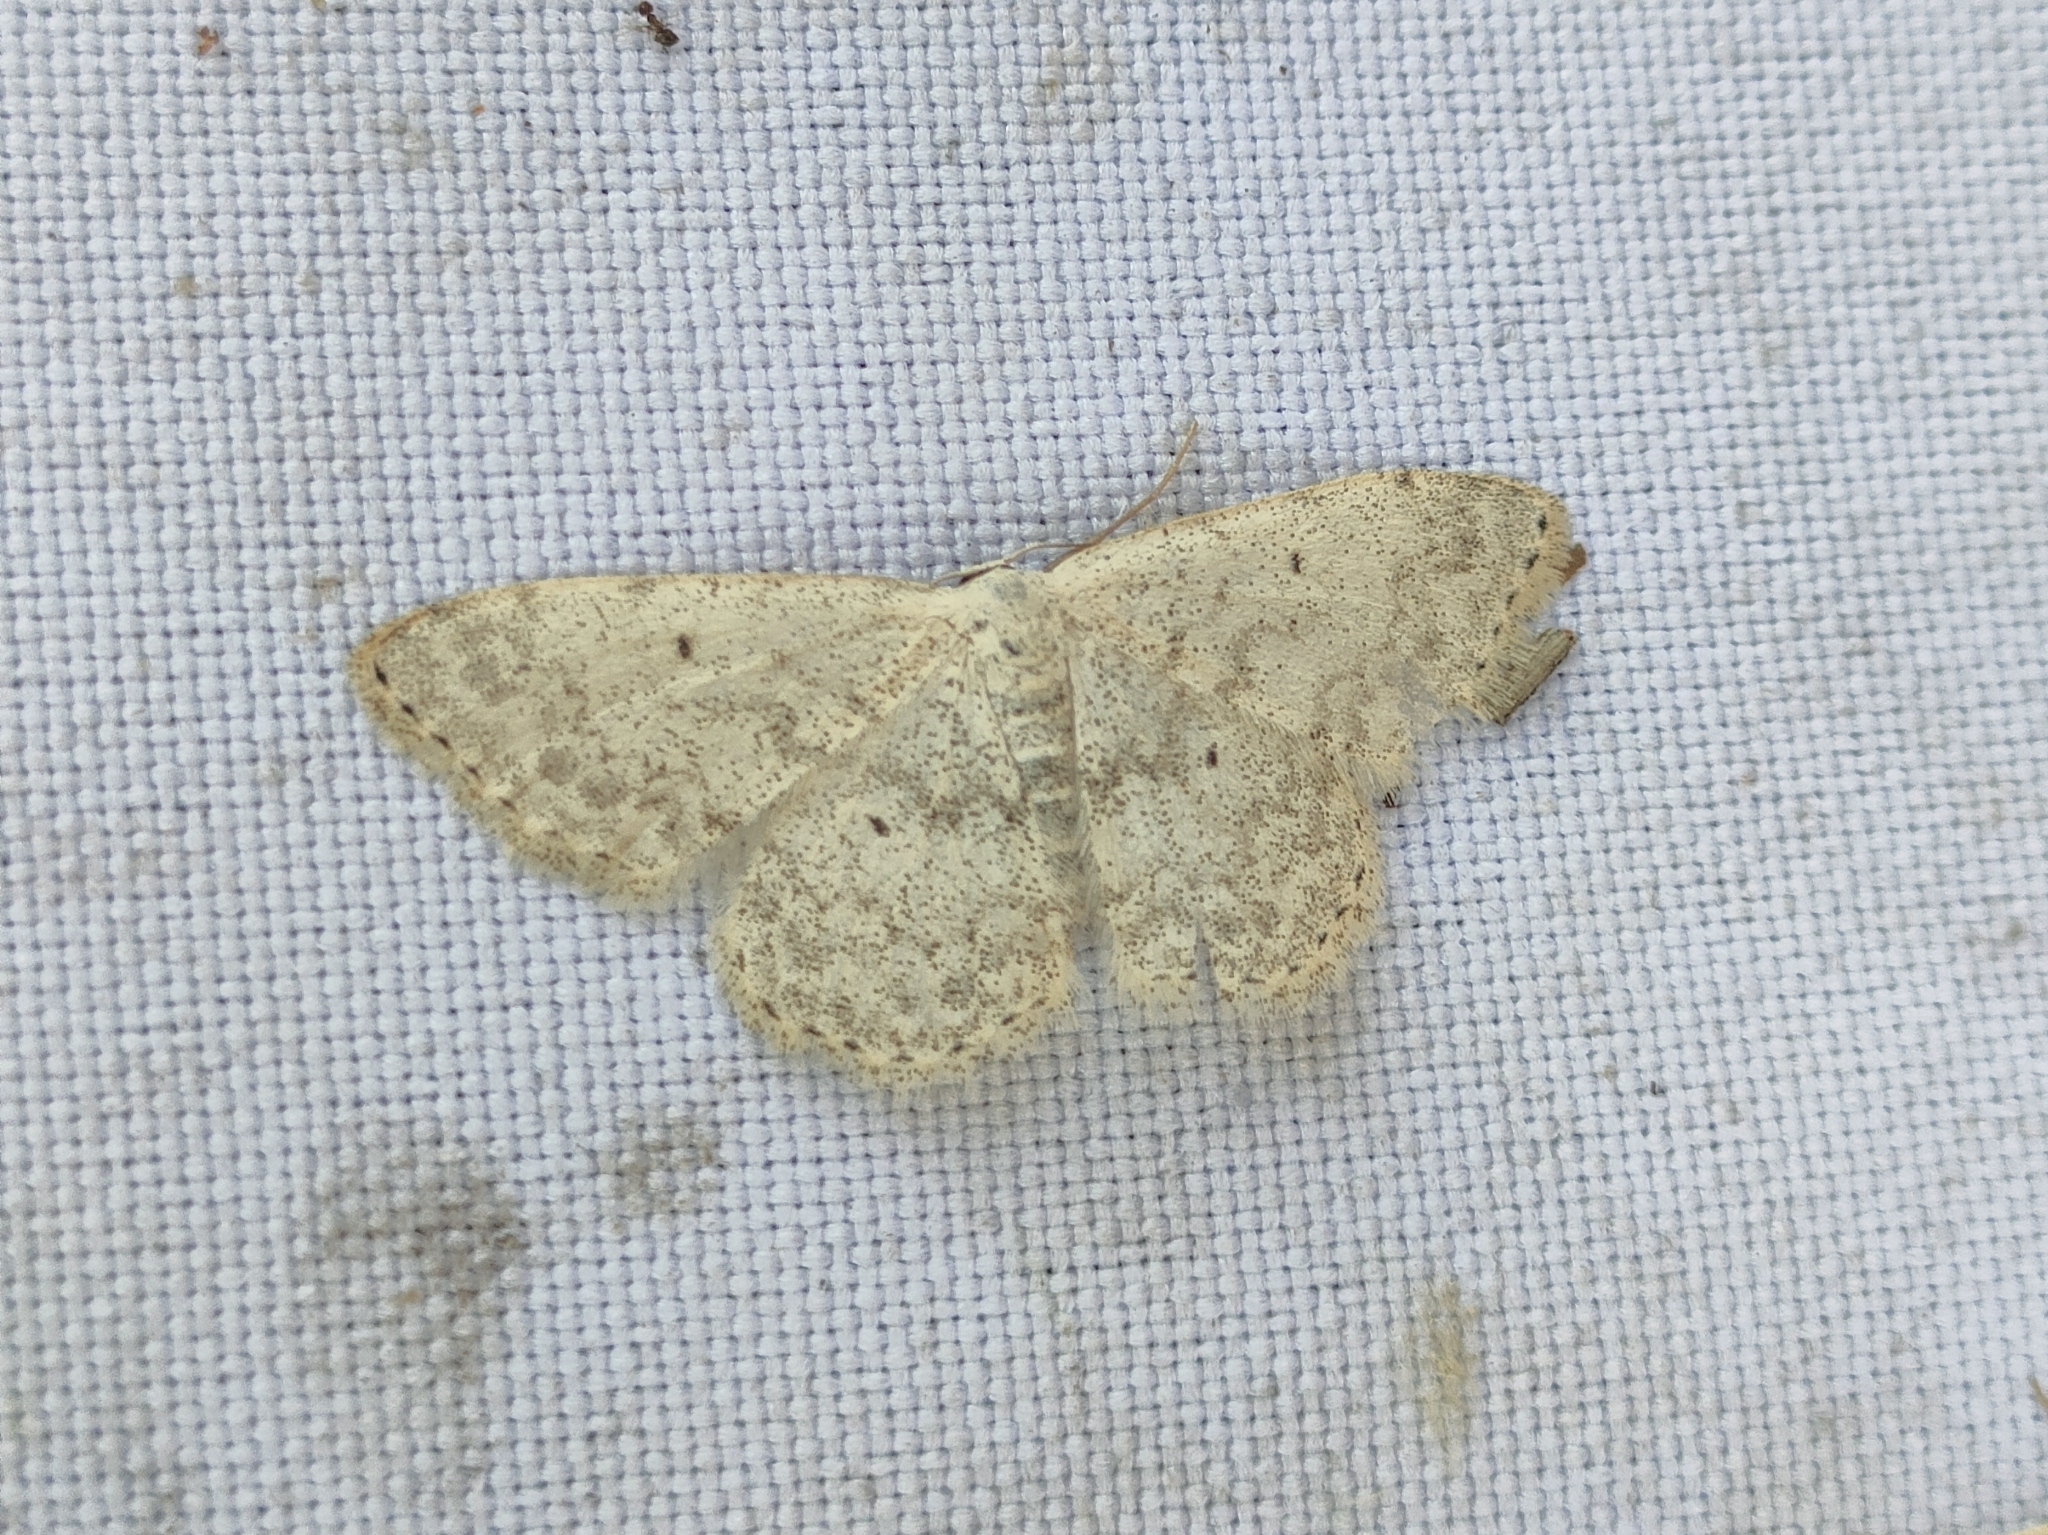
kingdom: Animalia
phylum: Arthropoda
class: Insecta
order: Lepidoptera
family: Geometridae
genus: Scopula
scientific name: Scopula marginepunctata
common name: Mullein wave
